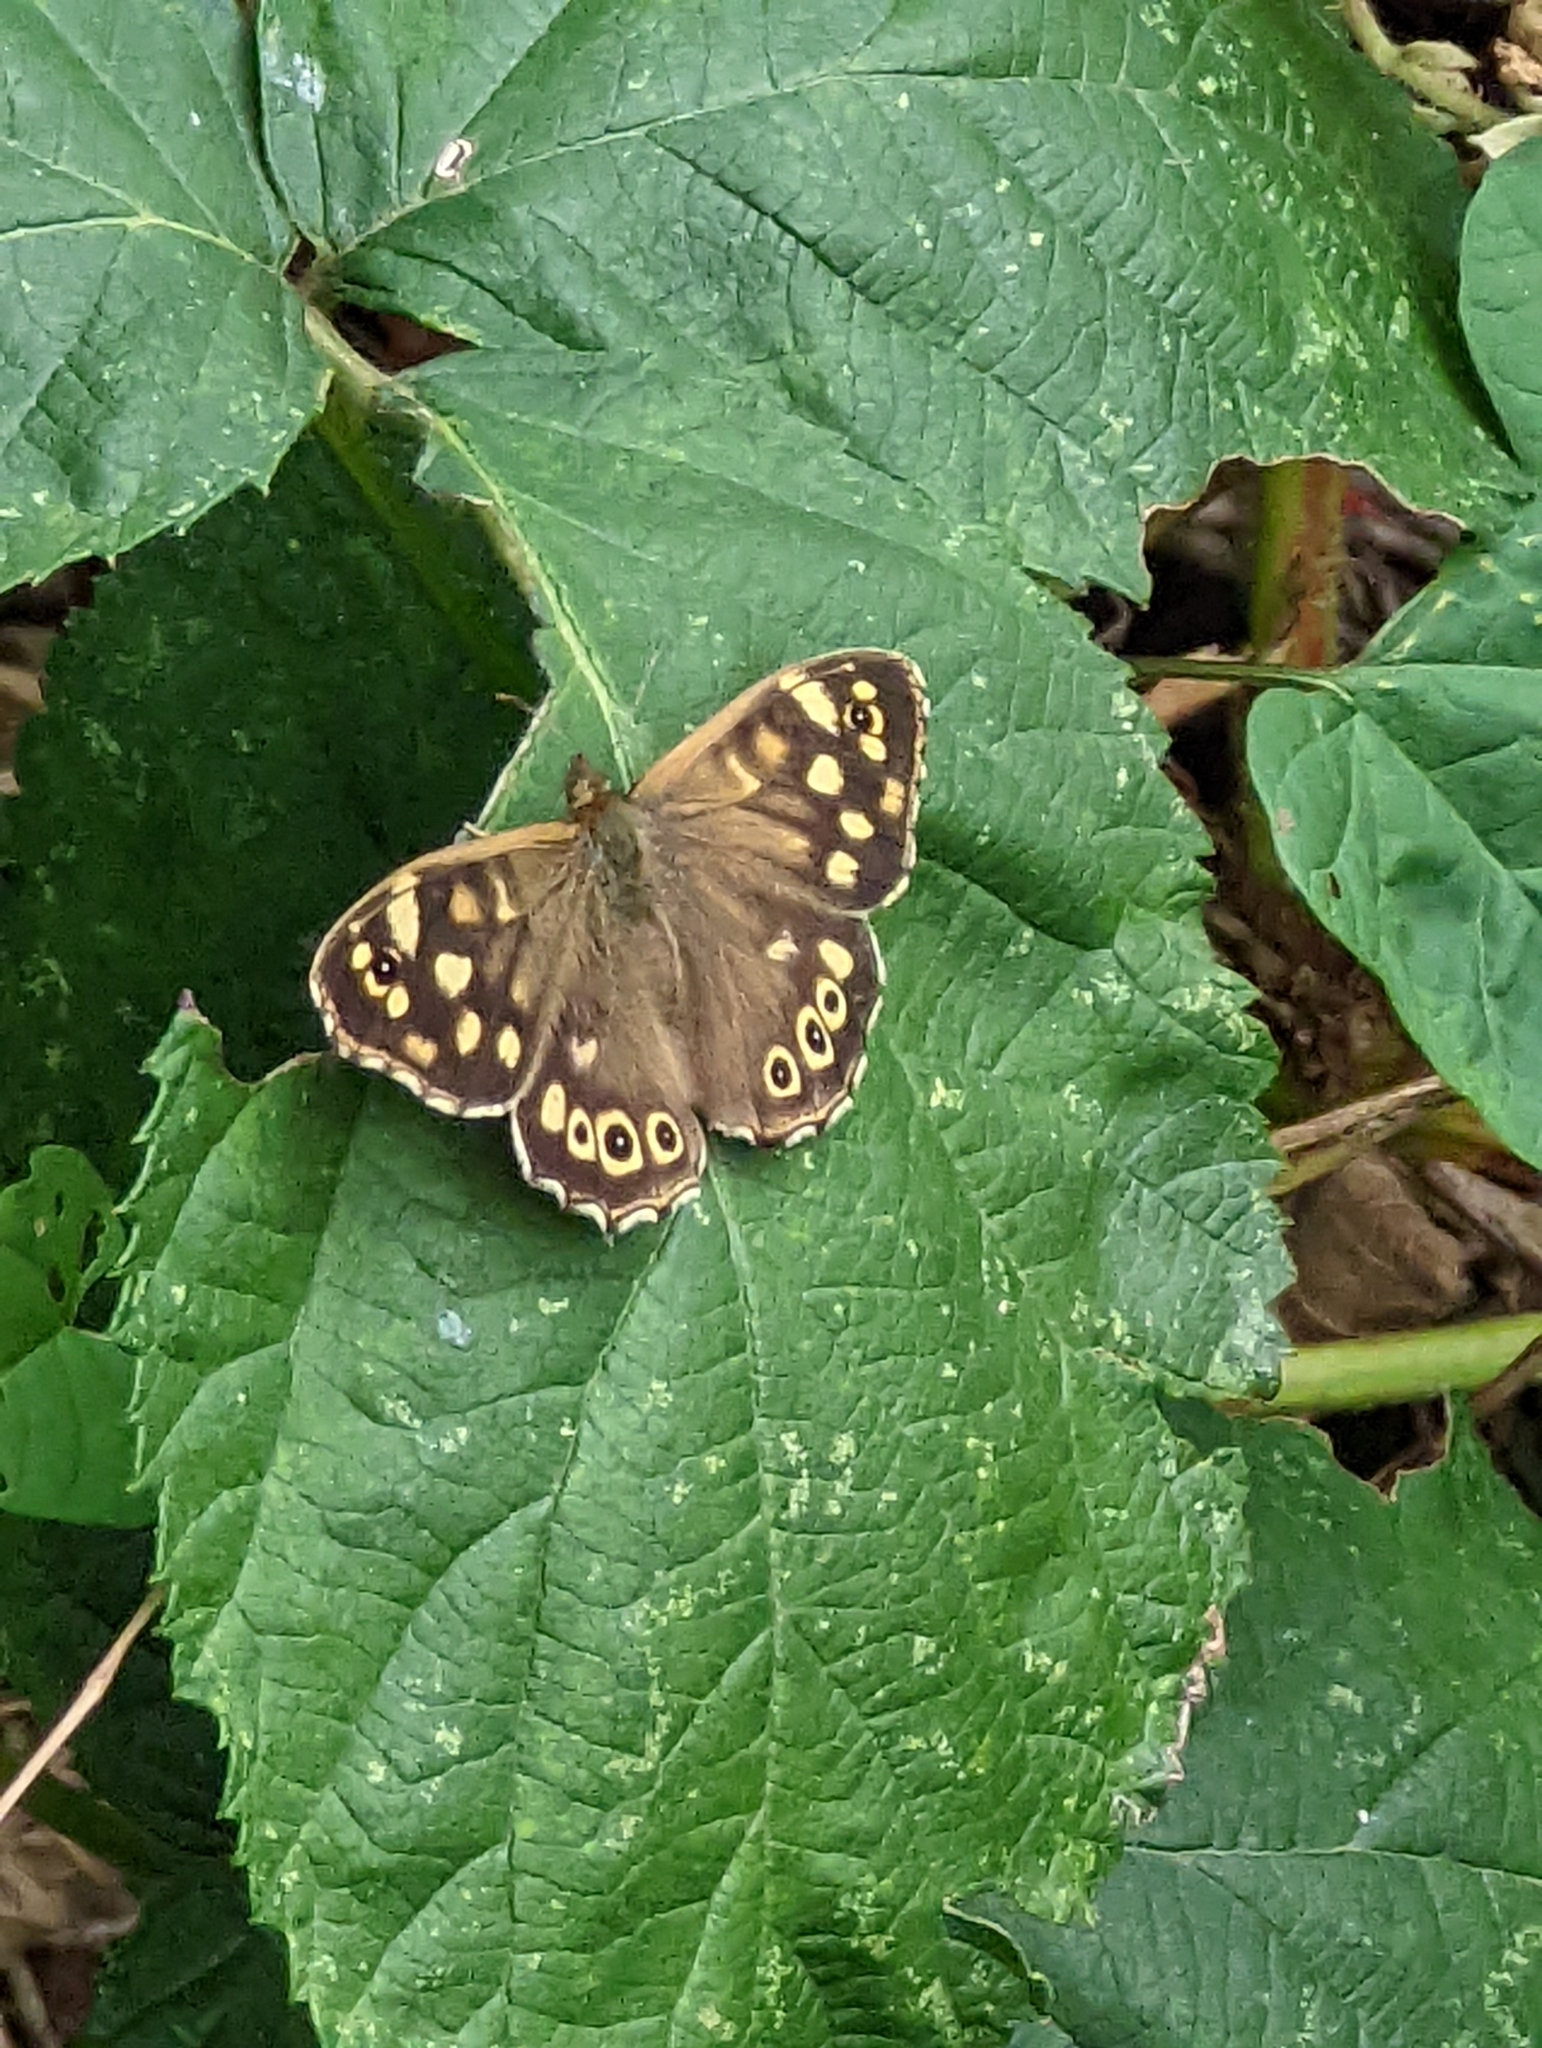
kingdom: Animalia
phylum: Arthropoda
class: Insecta
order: Lepidoptera
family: Nymphalidae
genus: Pararge
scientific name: Pararge aegeria
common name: Speckled wood
